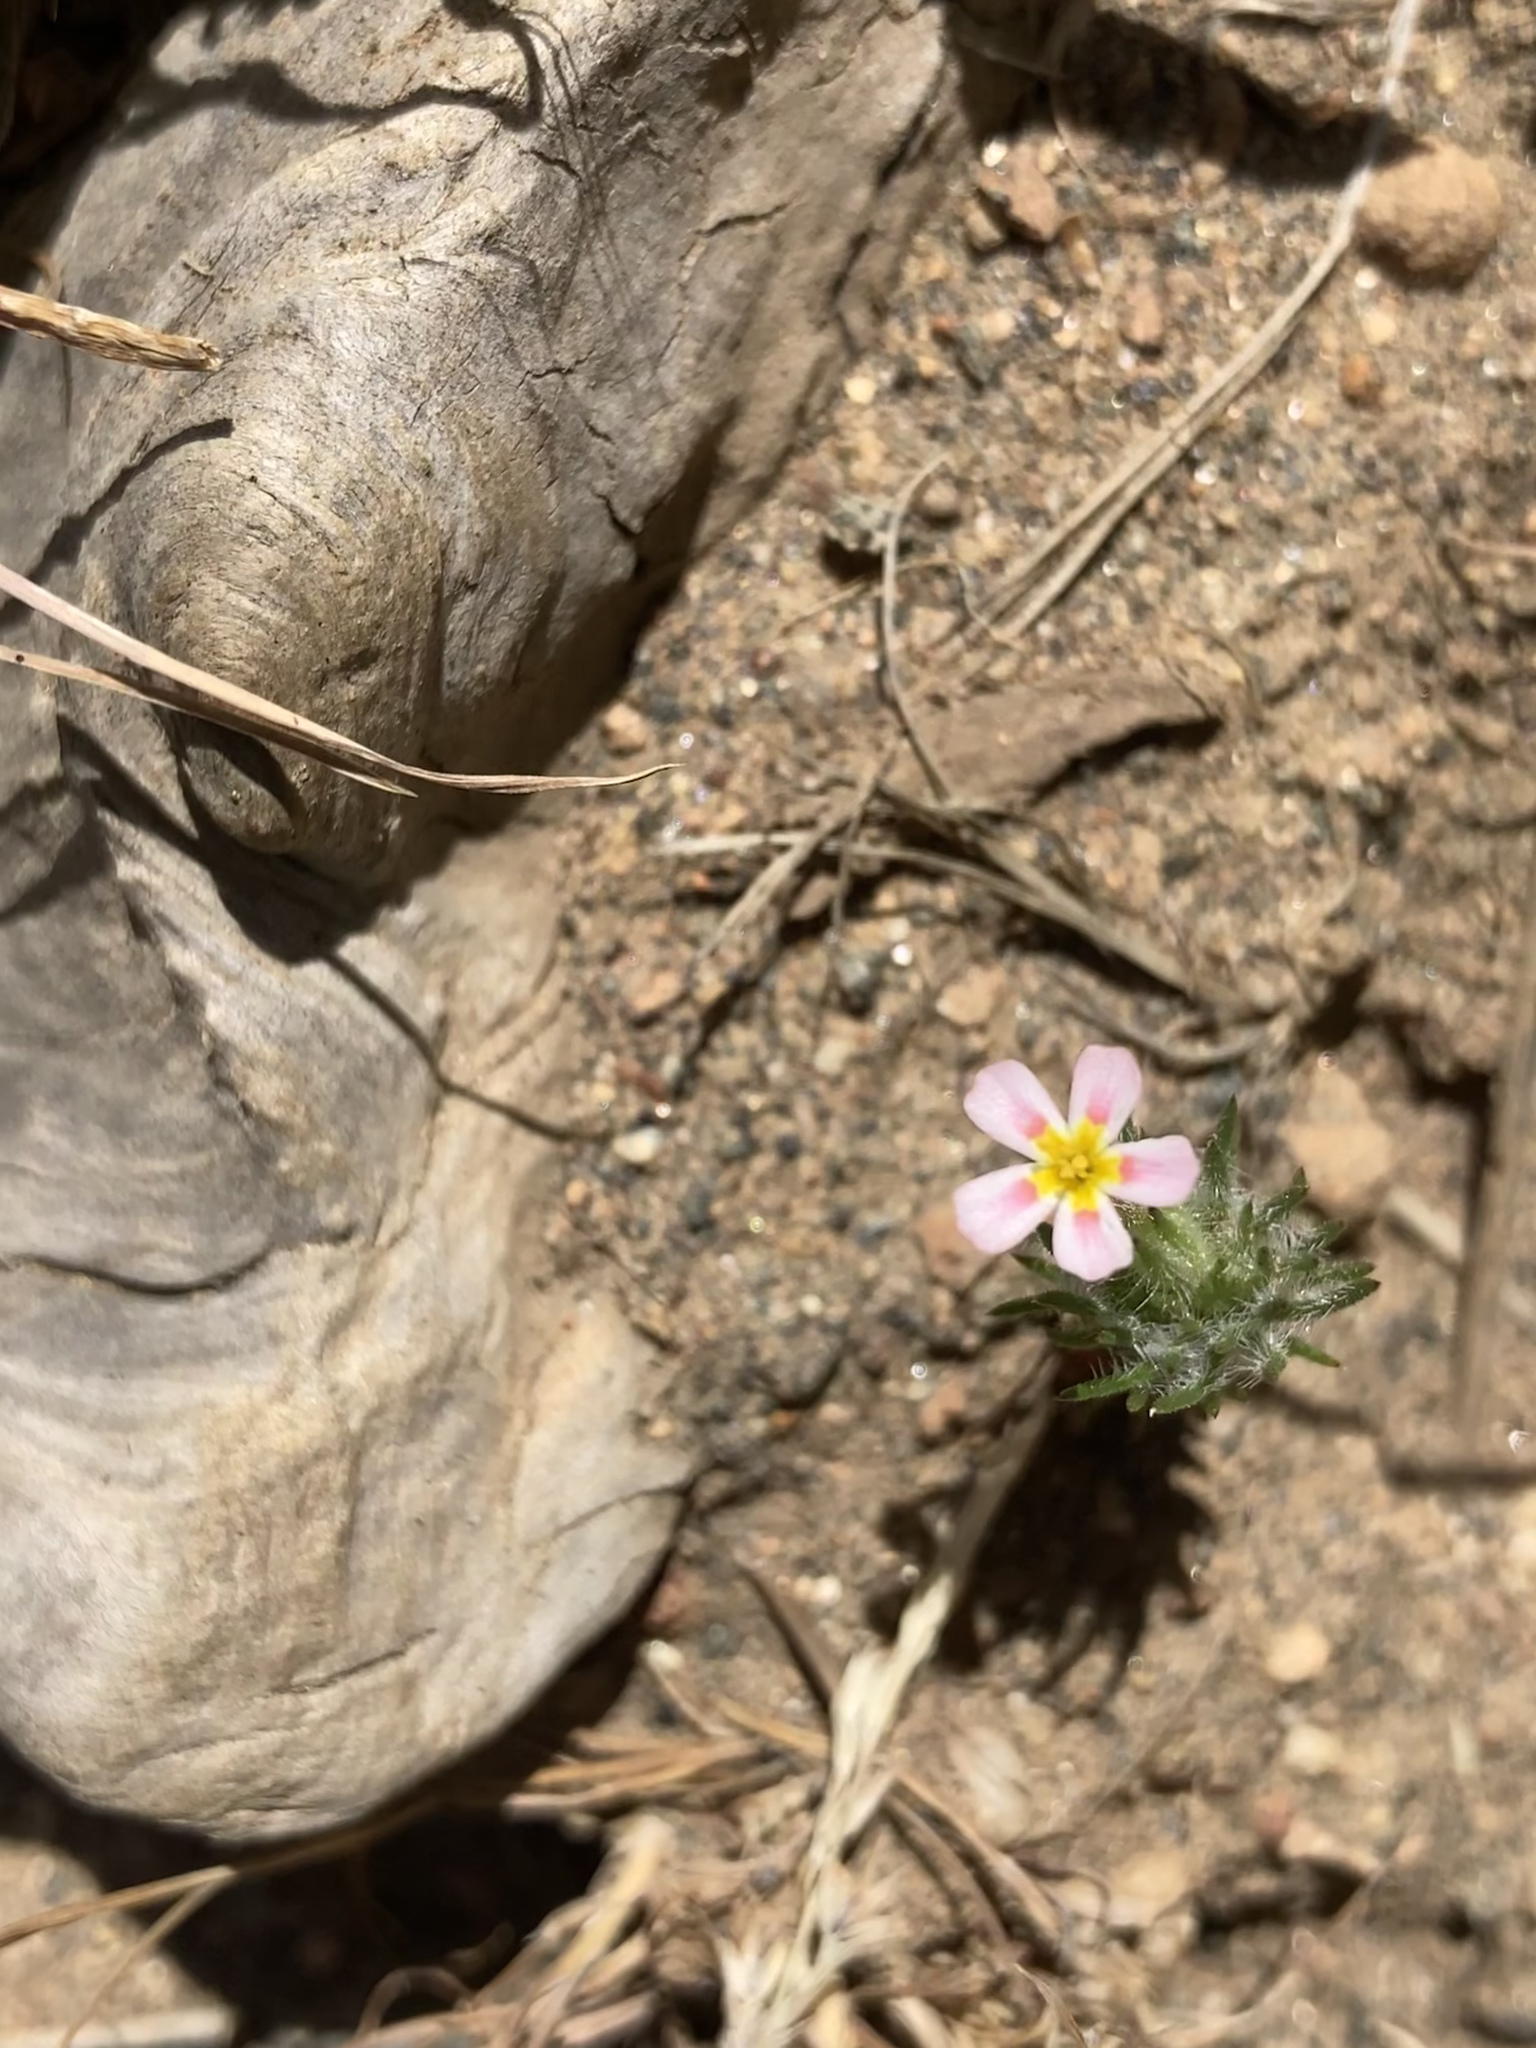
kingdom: Plantae
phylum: Tracheophyta
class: Magnoliopsida
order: Ericales
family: Polemoniaceae
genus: Leptosiphon
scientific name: Leptosiphon ciliatus
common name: Whiskerbrush
